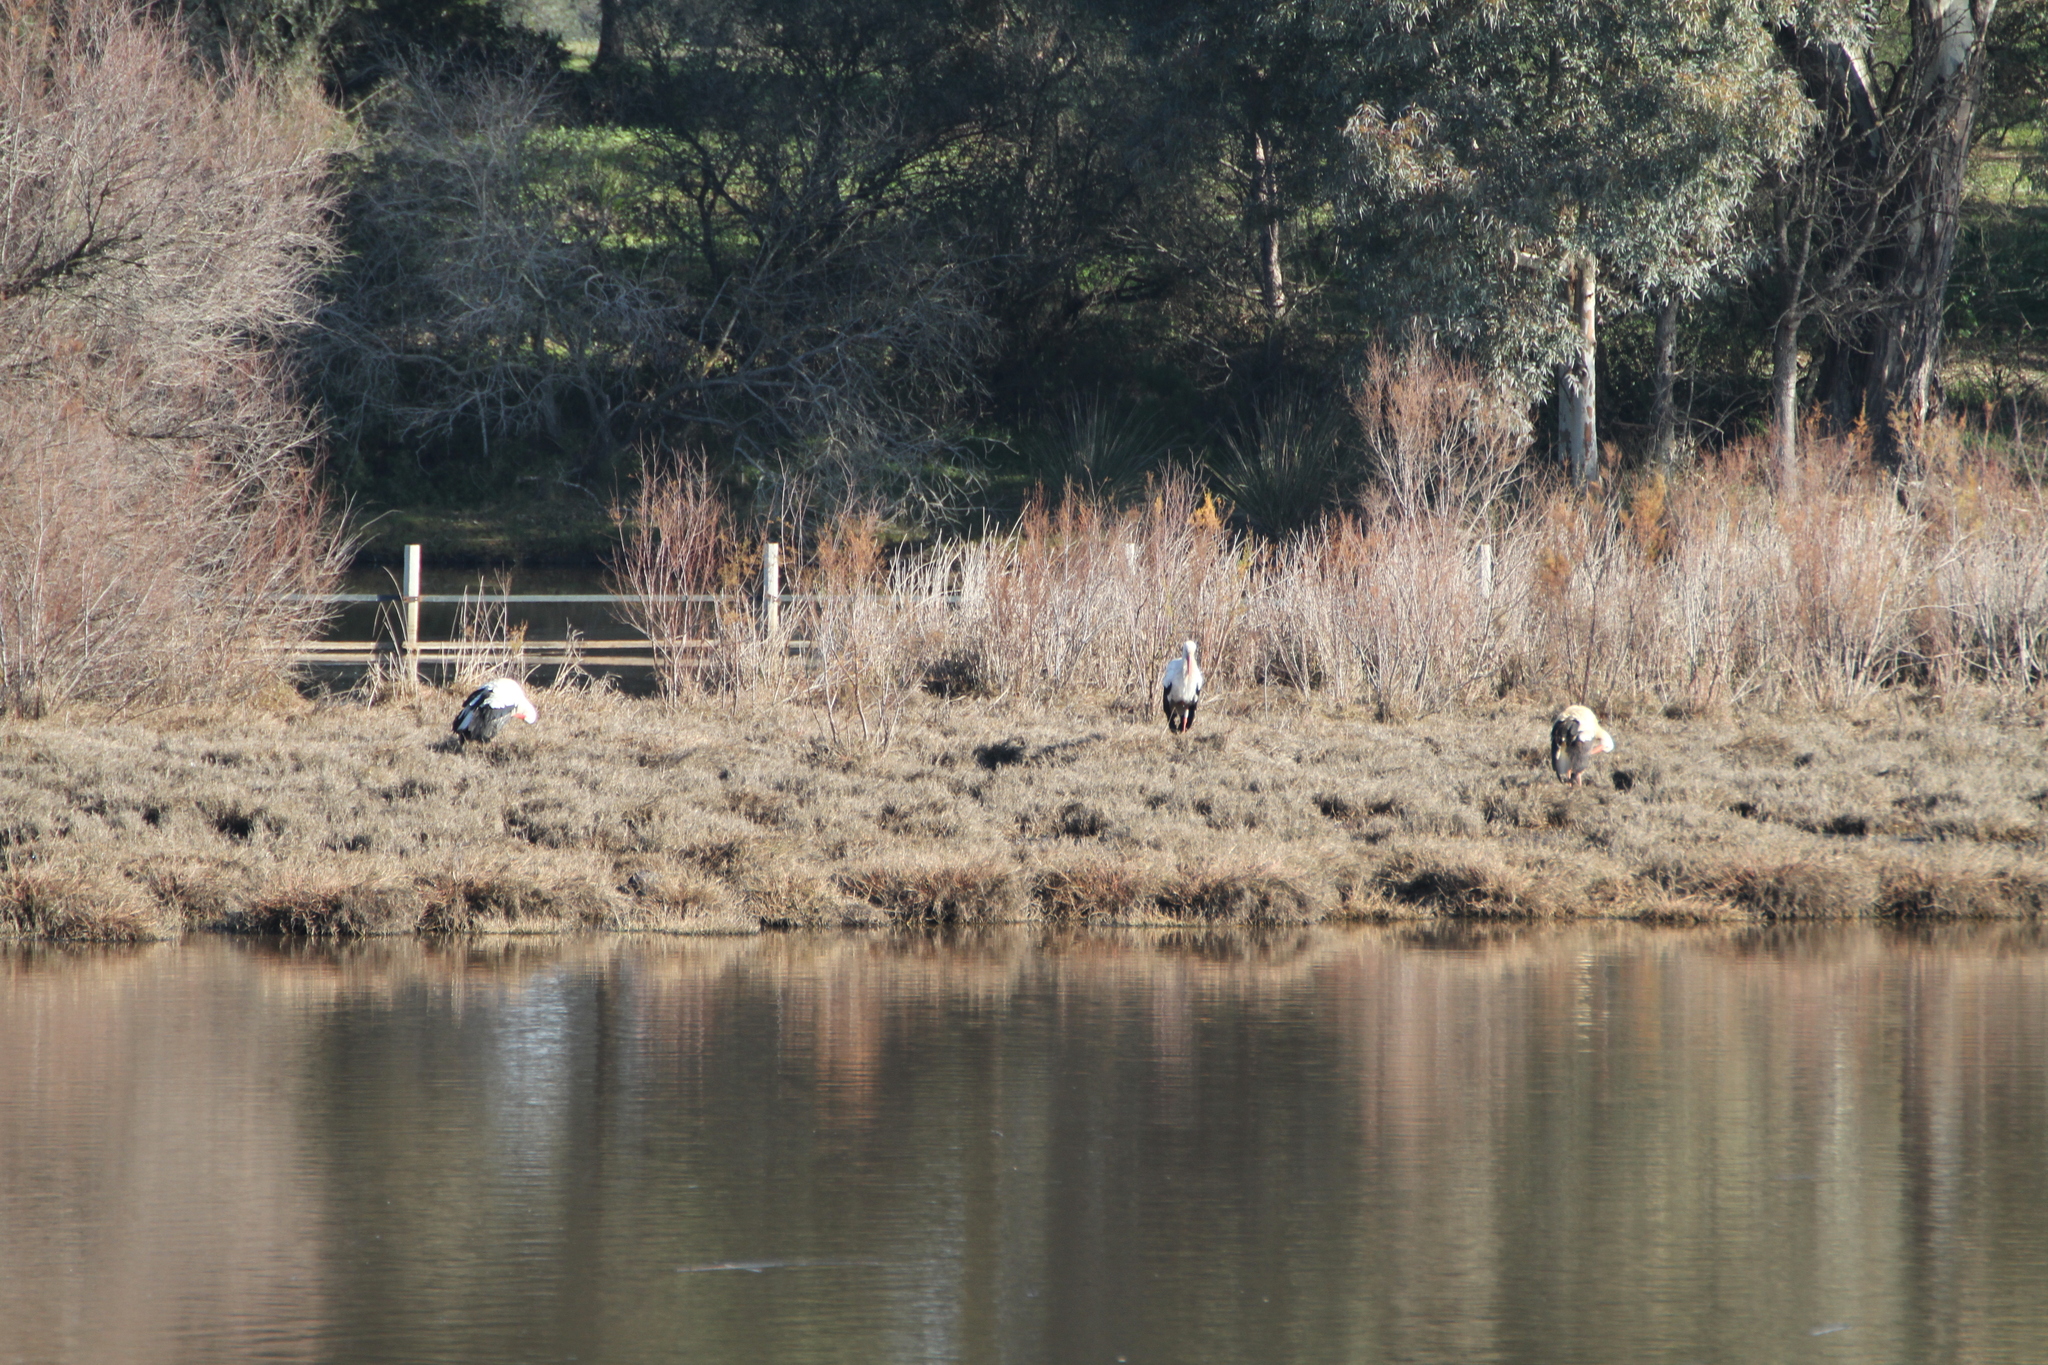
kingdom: Animalia
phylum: Chordata
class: Aves
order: Ciconiiformes
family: Ciconiidae
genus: Ciconia
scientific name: Ciconia ciconia
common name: White stork
